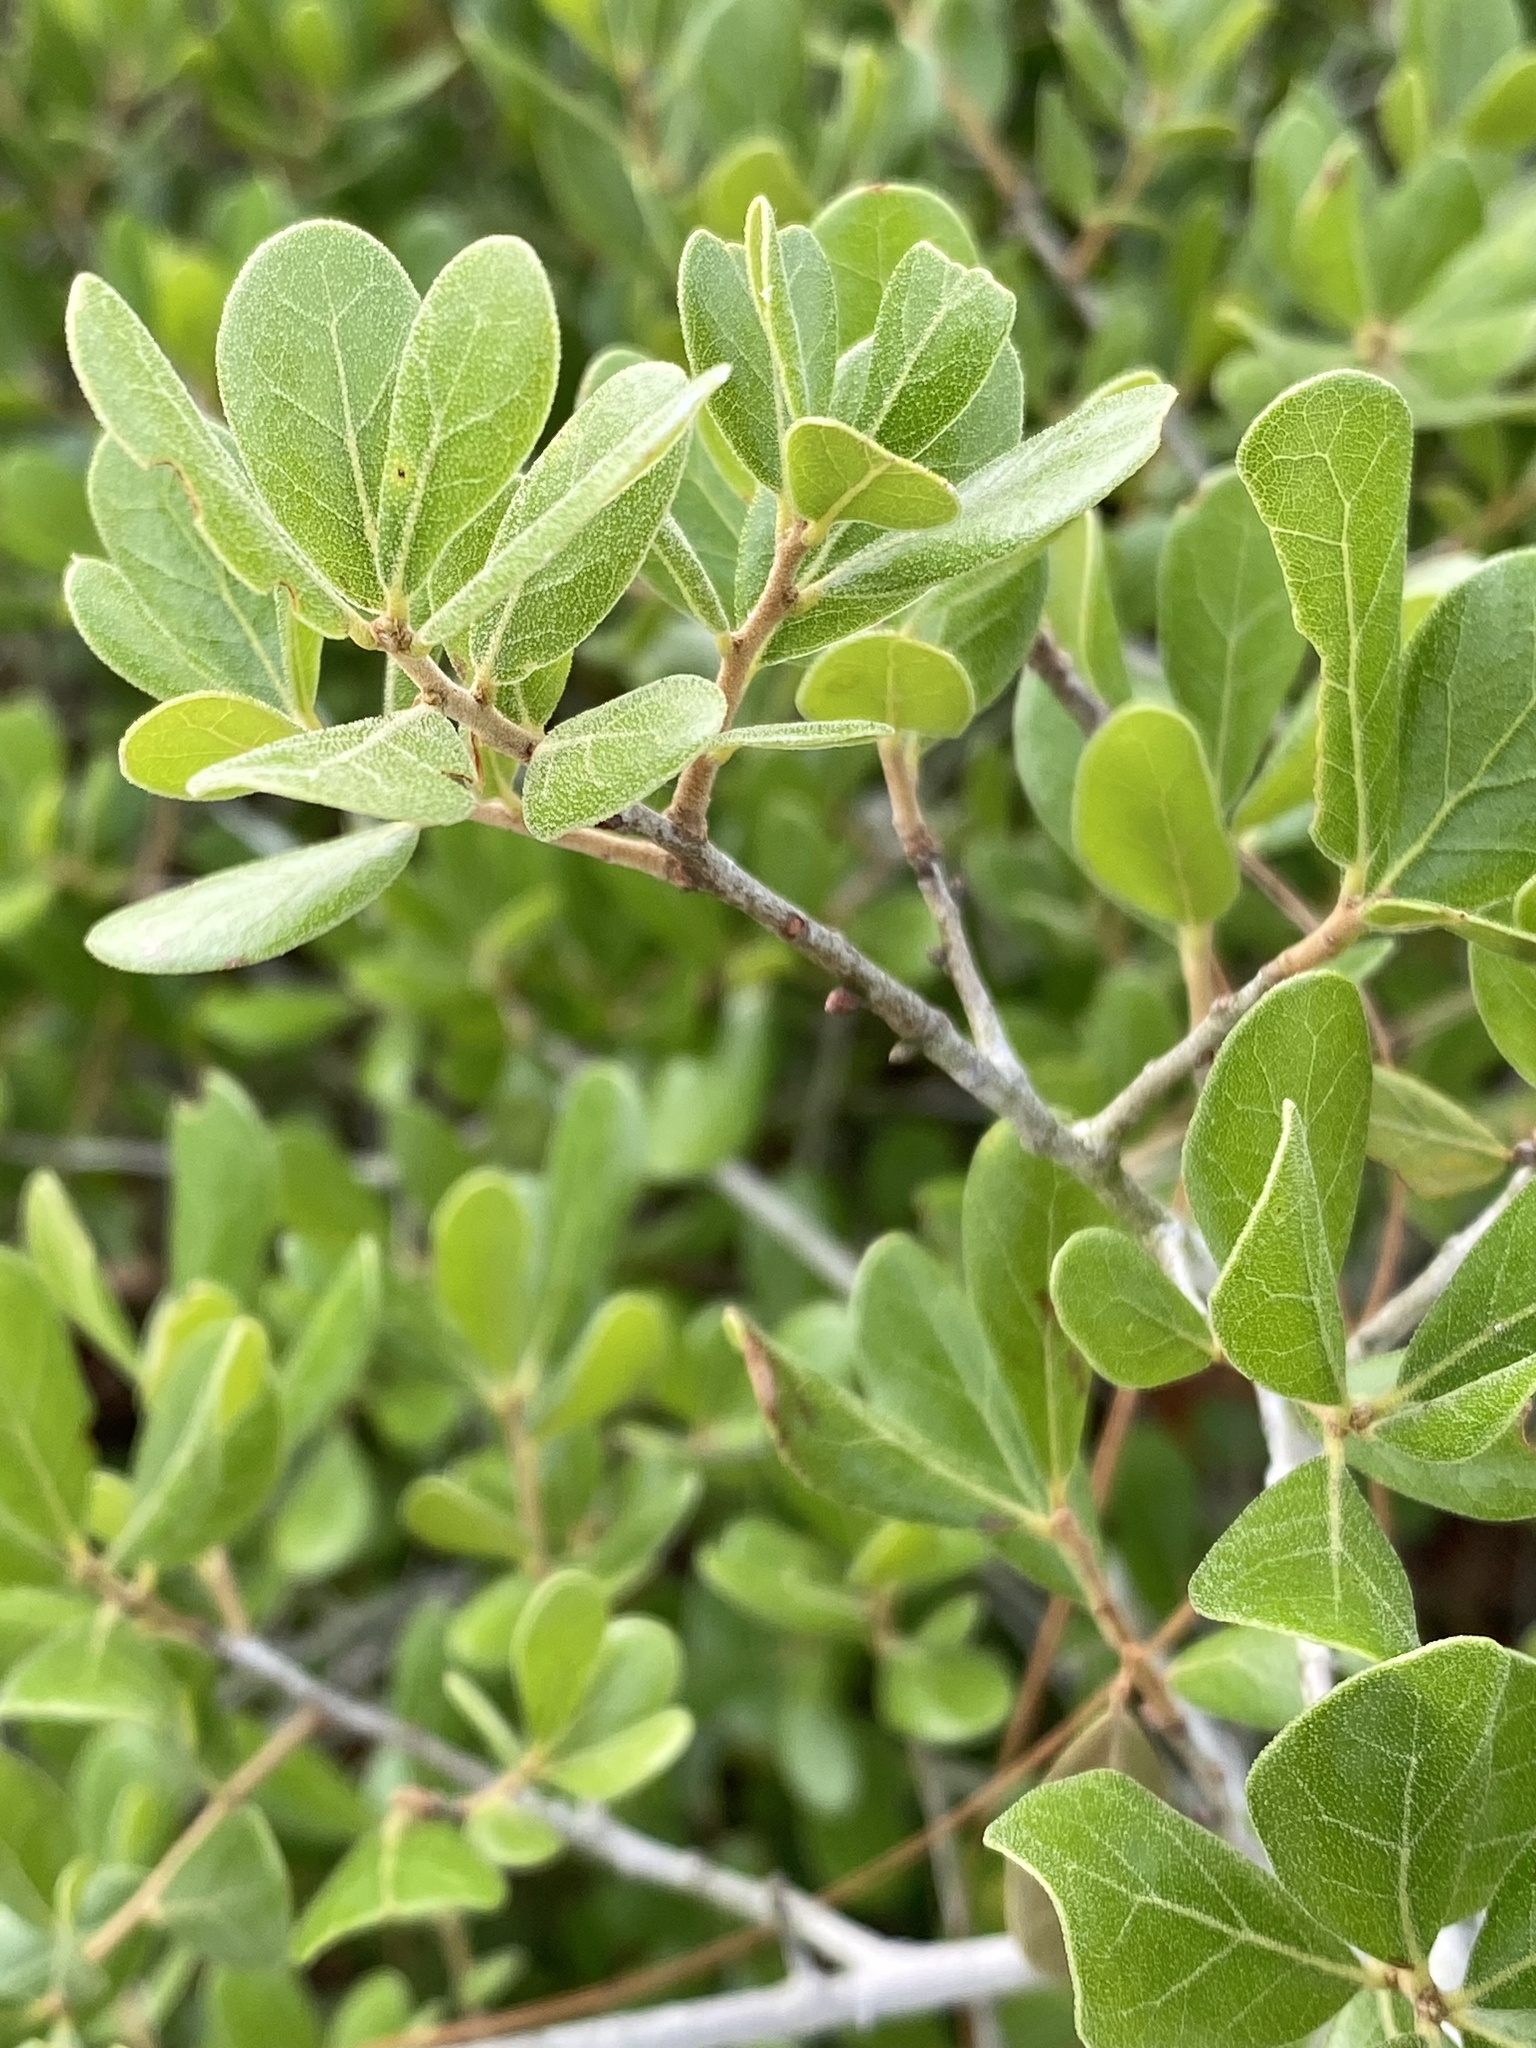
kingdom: Plantae
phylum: Tracheophyta
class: Magnoliopsida
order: Fagales
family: Fagaceae
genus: Quercus
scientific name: Quercus myrtifolia
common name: Myrtle oak
